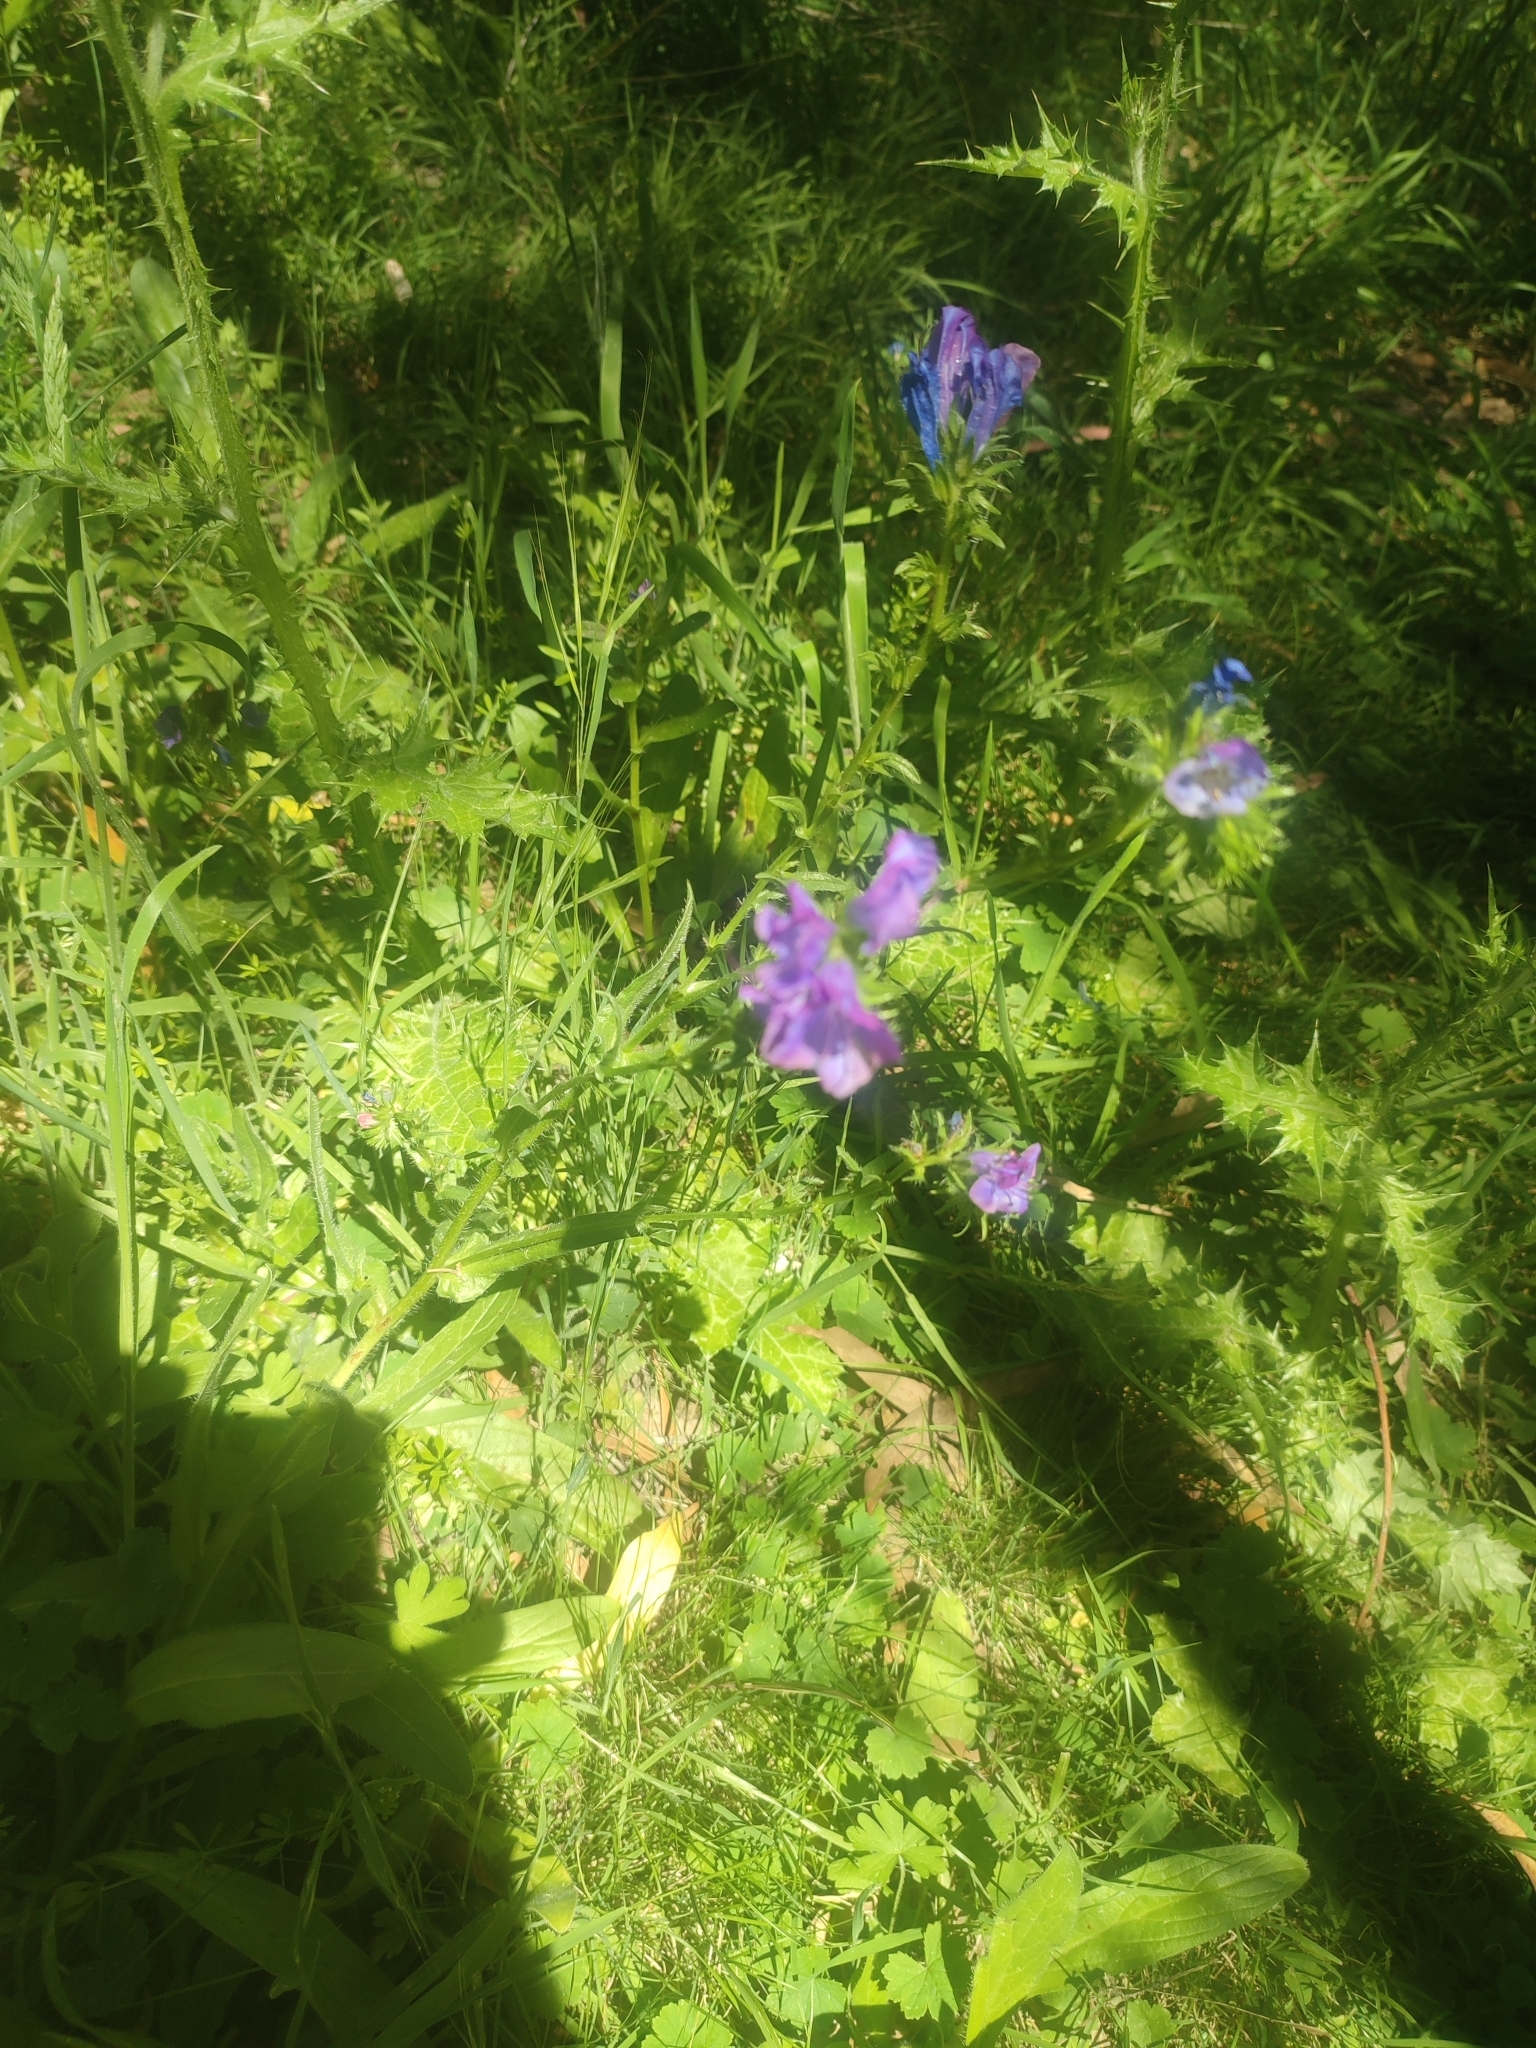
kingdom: Plantae
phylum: Tracheophyta
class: Magnoliopsida
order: Boraginales
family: Boraginaceae
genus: Echium
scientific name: Echium plantagineum
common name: Purple viper's-bugloss
